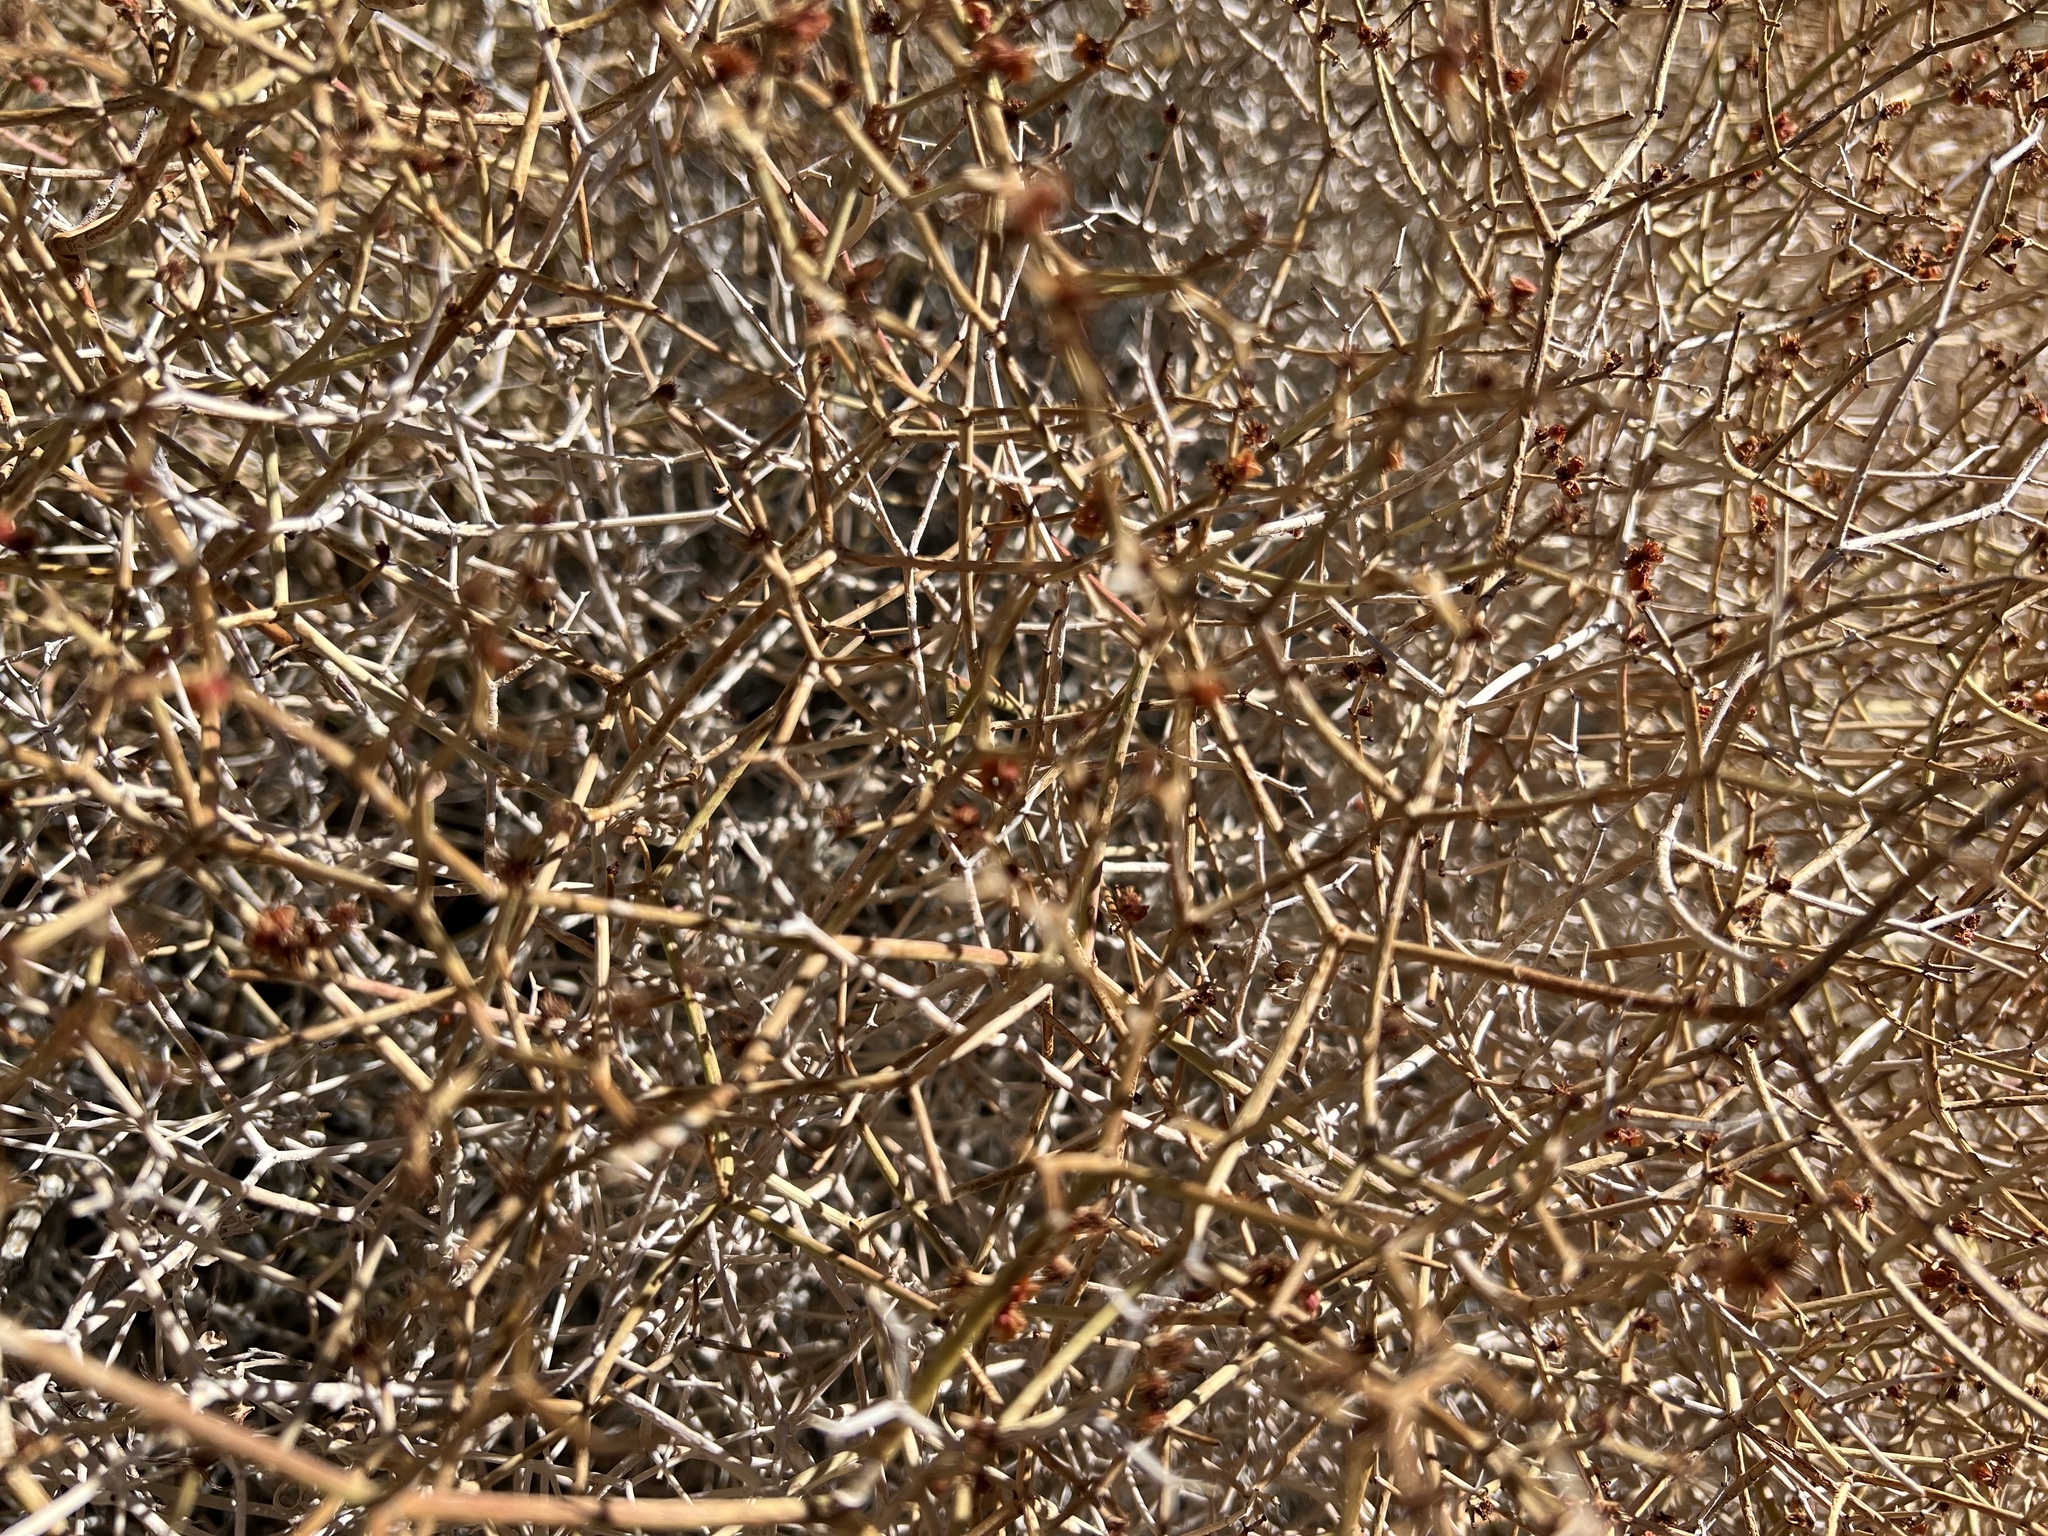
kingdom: Plantae
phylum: Tracheophyta
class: Magnoliopsida
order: Caryophyllales
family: Polygonaceae
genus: Eriogonum
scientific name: Eriogonum heermannii
